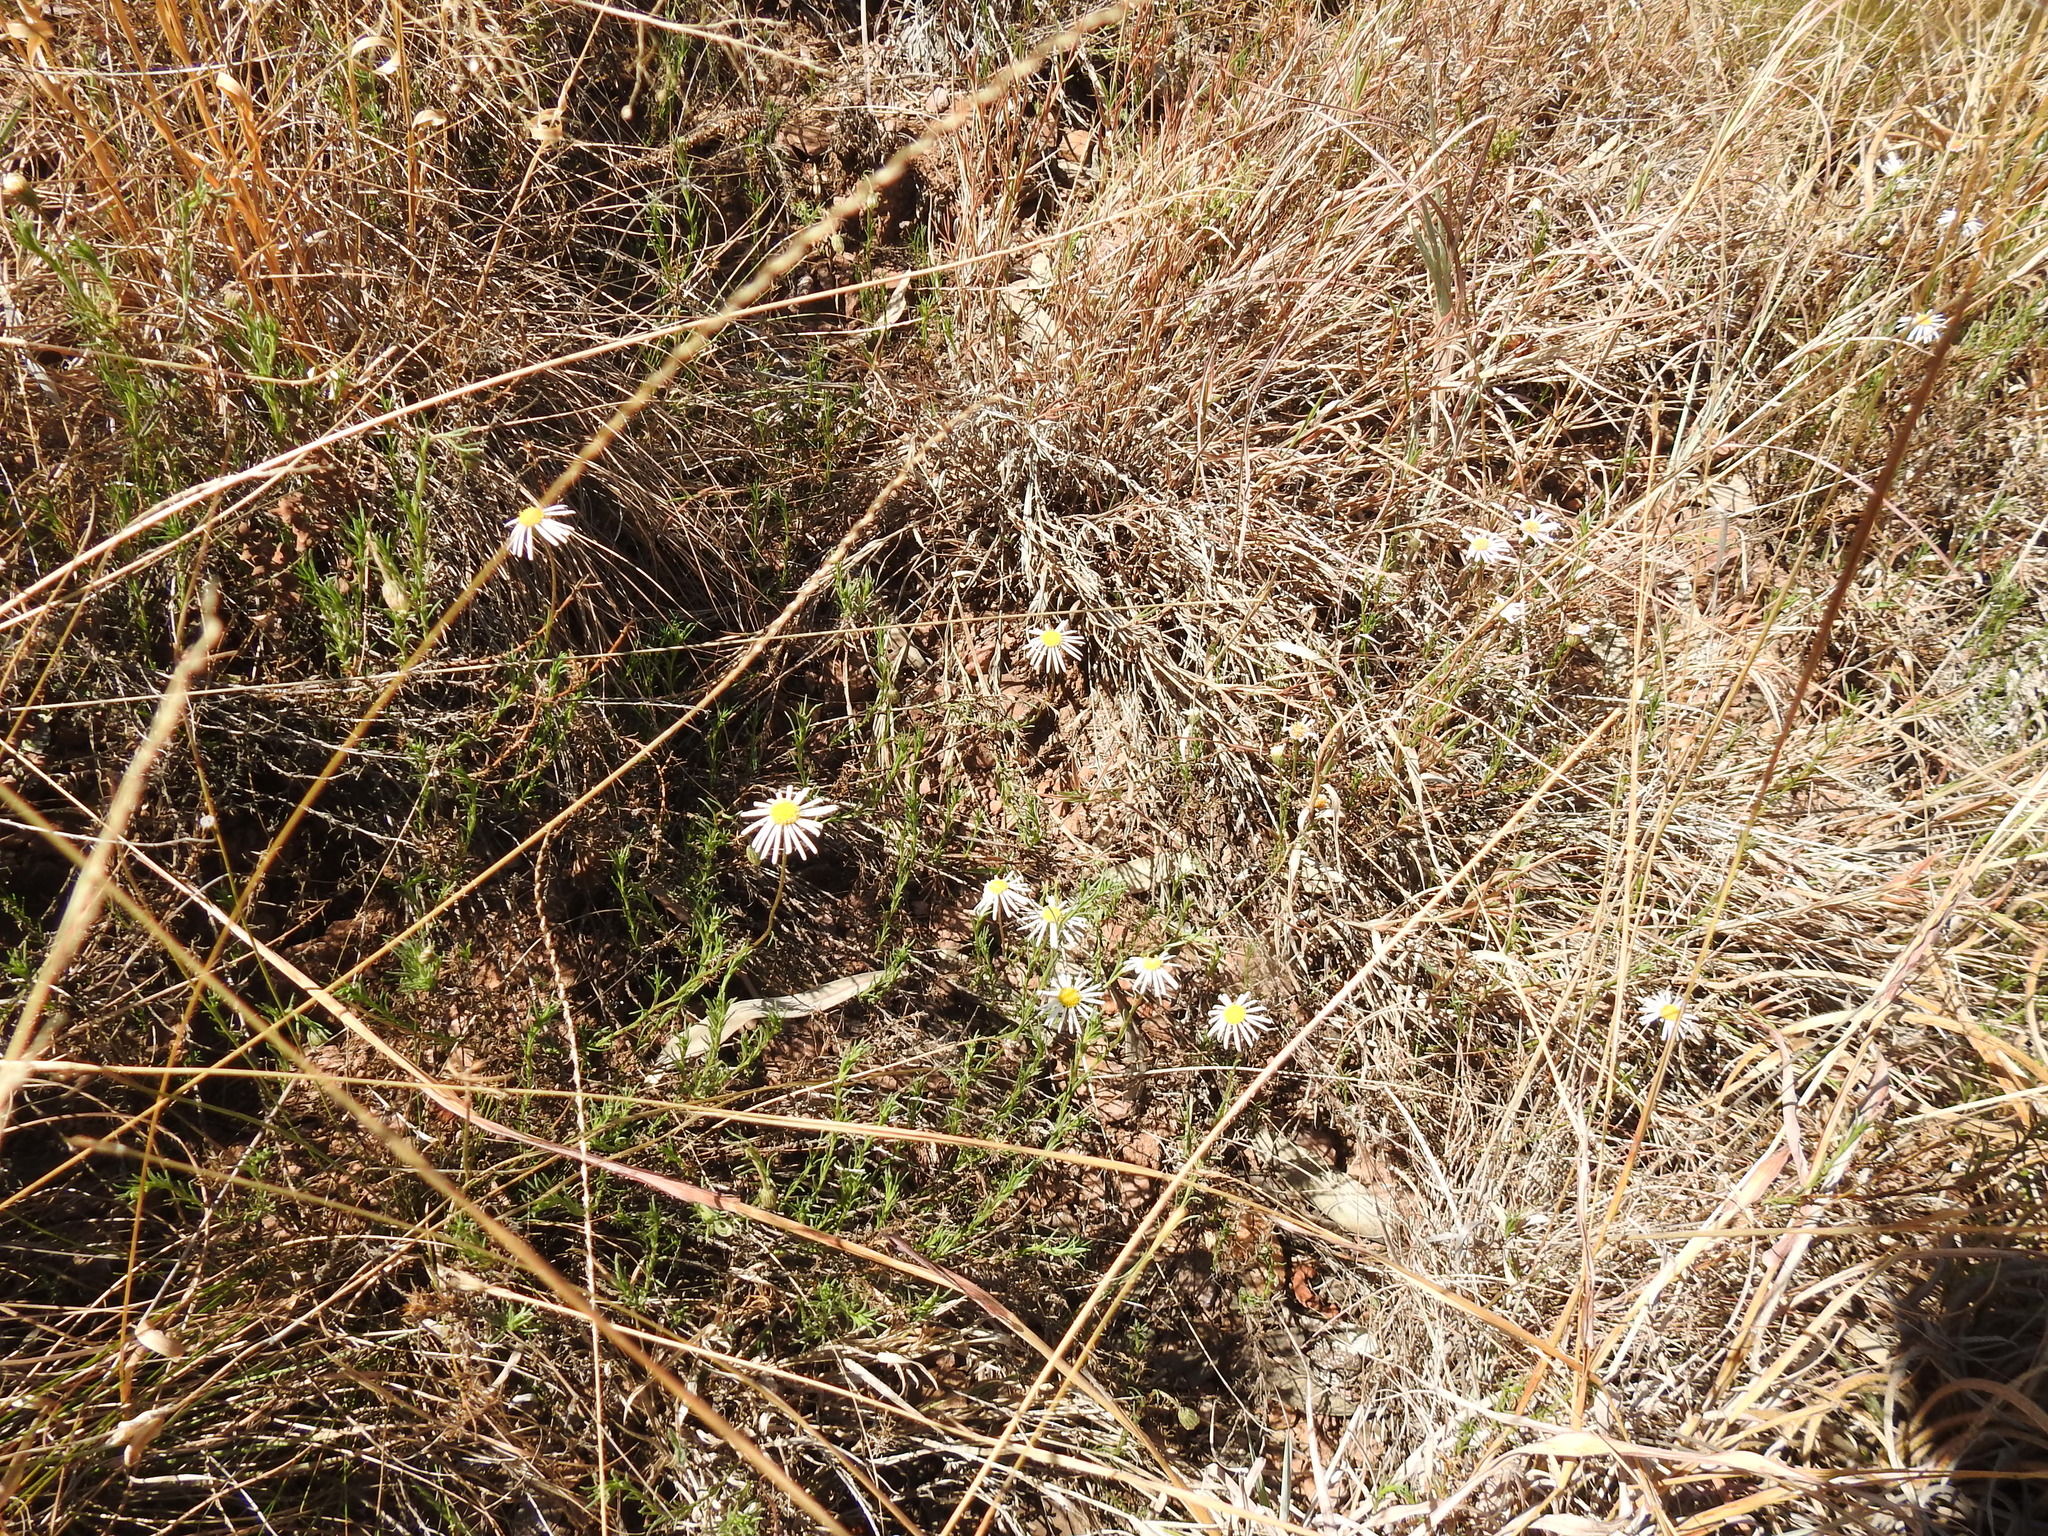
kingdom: Plantae
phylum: Tracheophyta
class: Magnoliopsida
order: Asterales
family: Asteraceae
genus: Felicia
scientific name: Felicia muricata
